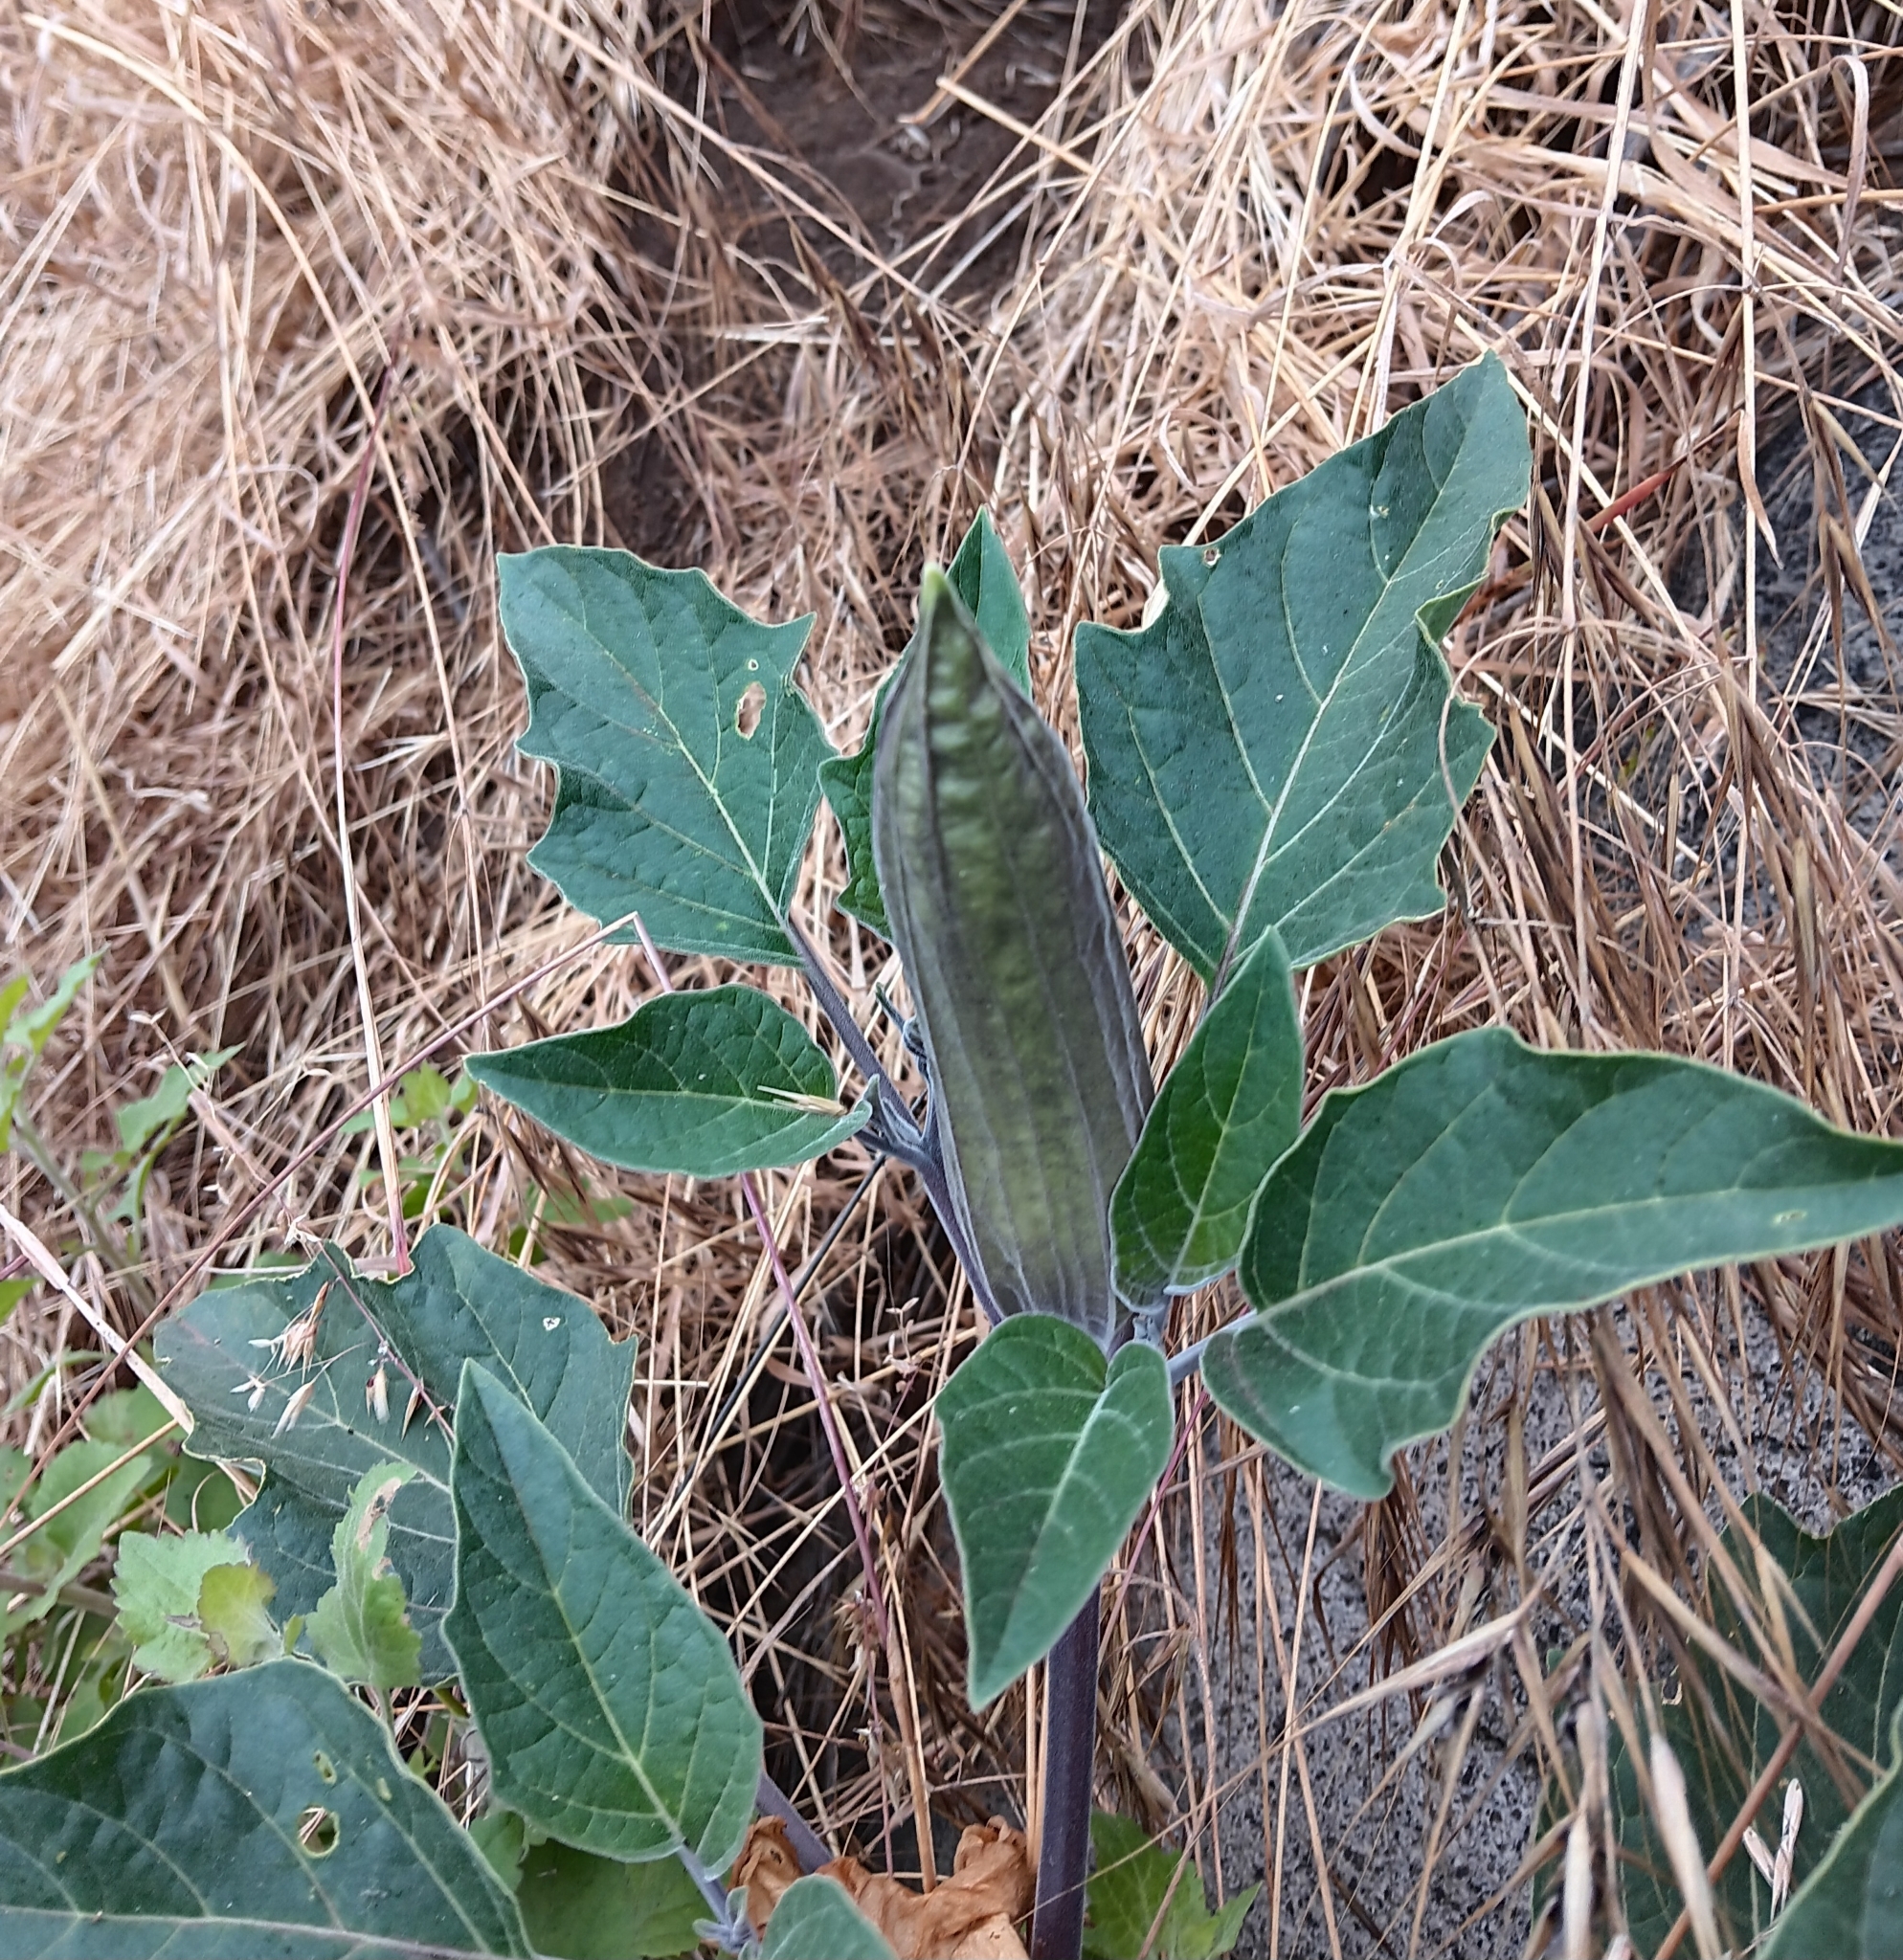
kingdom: Plantae
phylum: Tracheophyta
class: Magnoliopsida
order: Solanales
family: Solanaceae
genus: Datura
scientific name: Datura wrightii
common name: Sacred thorn-apple
